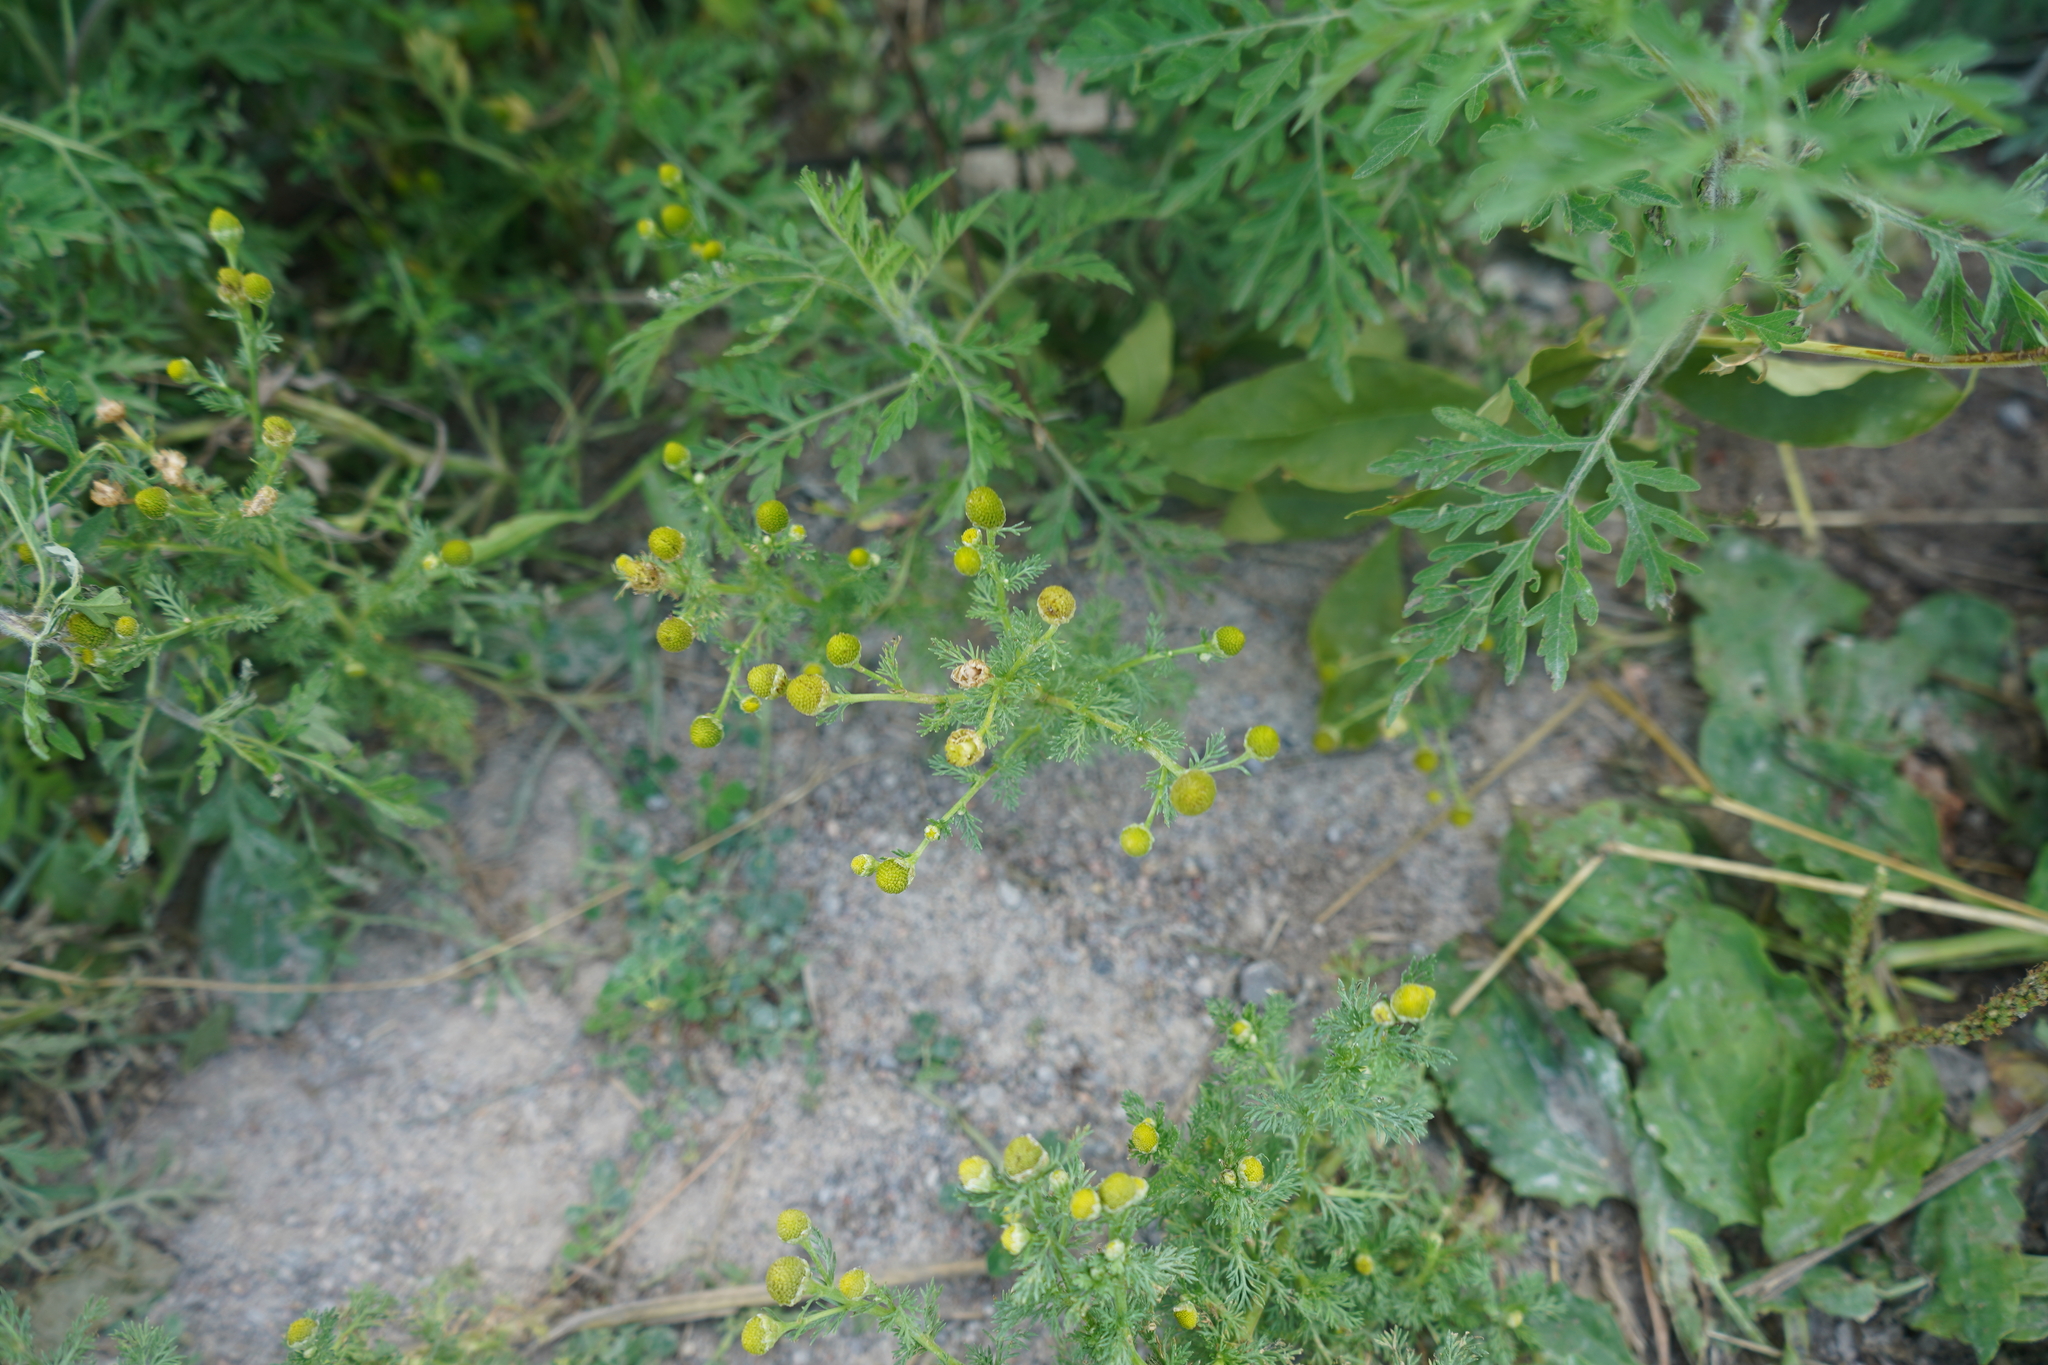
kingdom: Plantae
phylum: Tracheophyta
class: Magnoliopsida
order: Asterales
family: Asteraceae
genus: Matricaria
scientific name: Matricaria discoidea
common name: Disc mayweed
